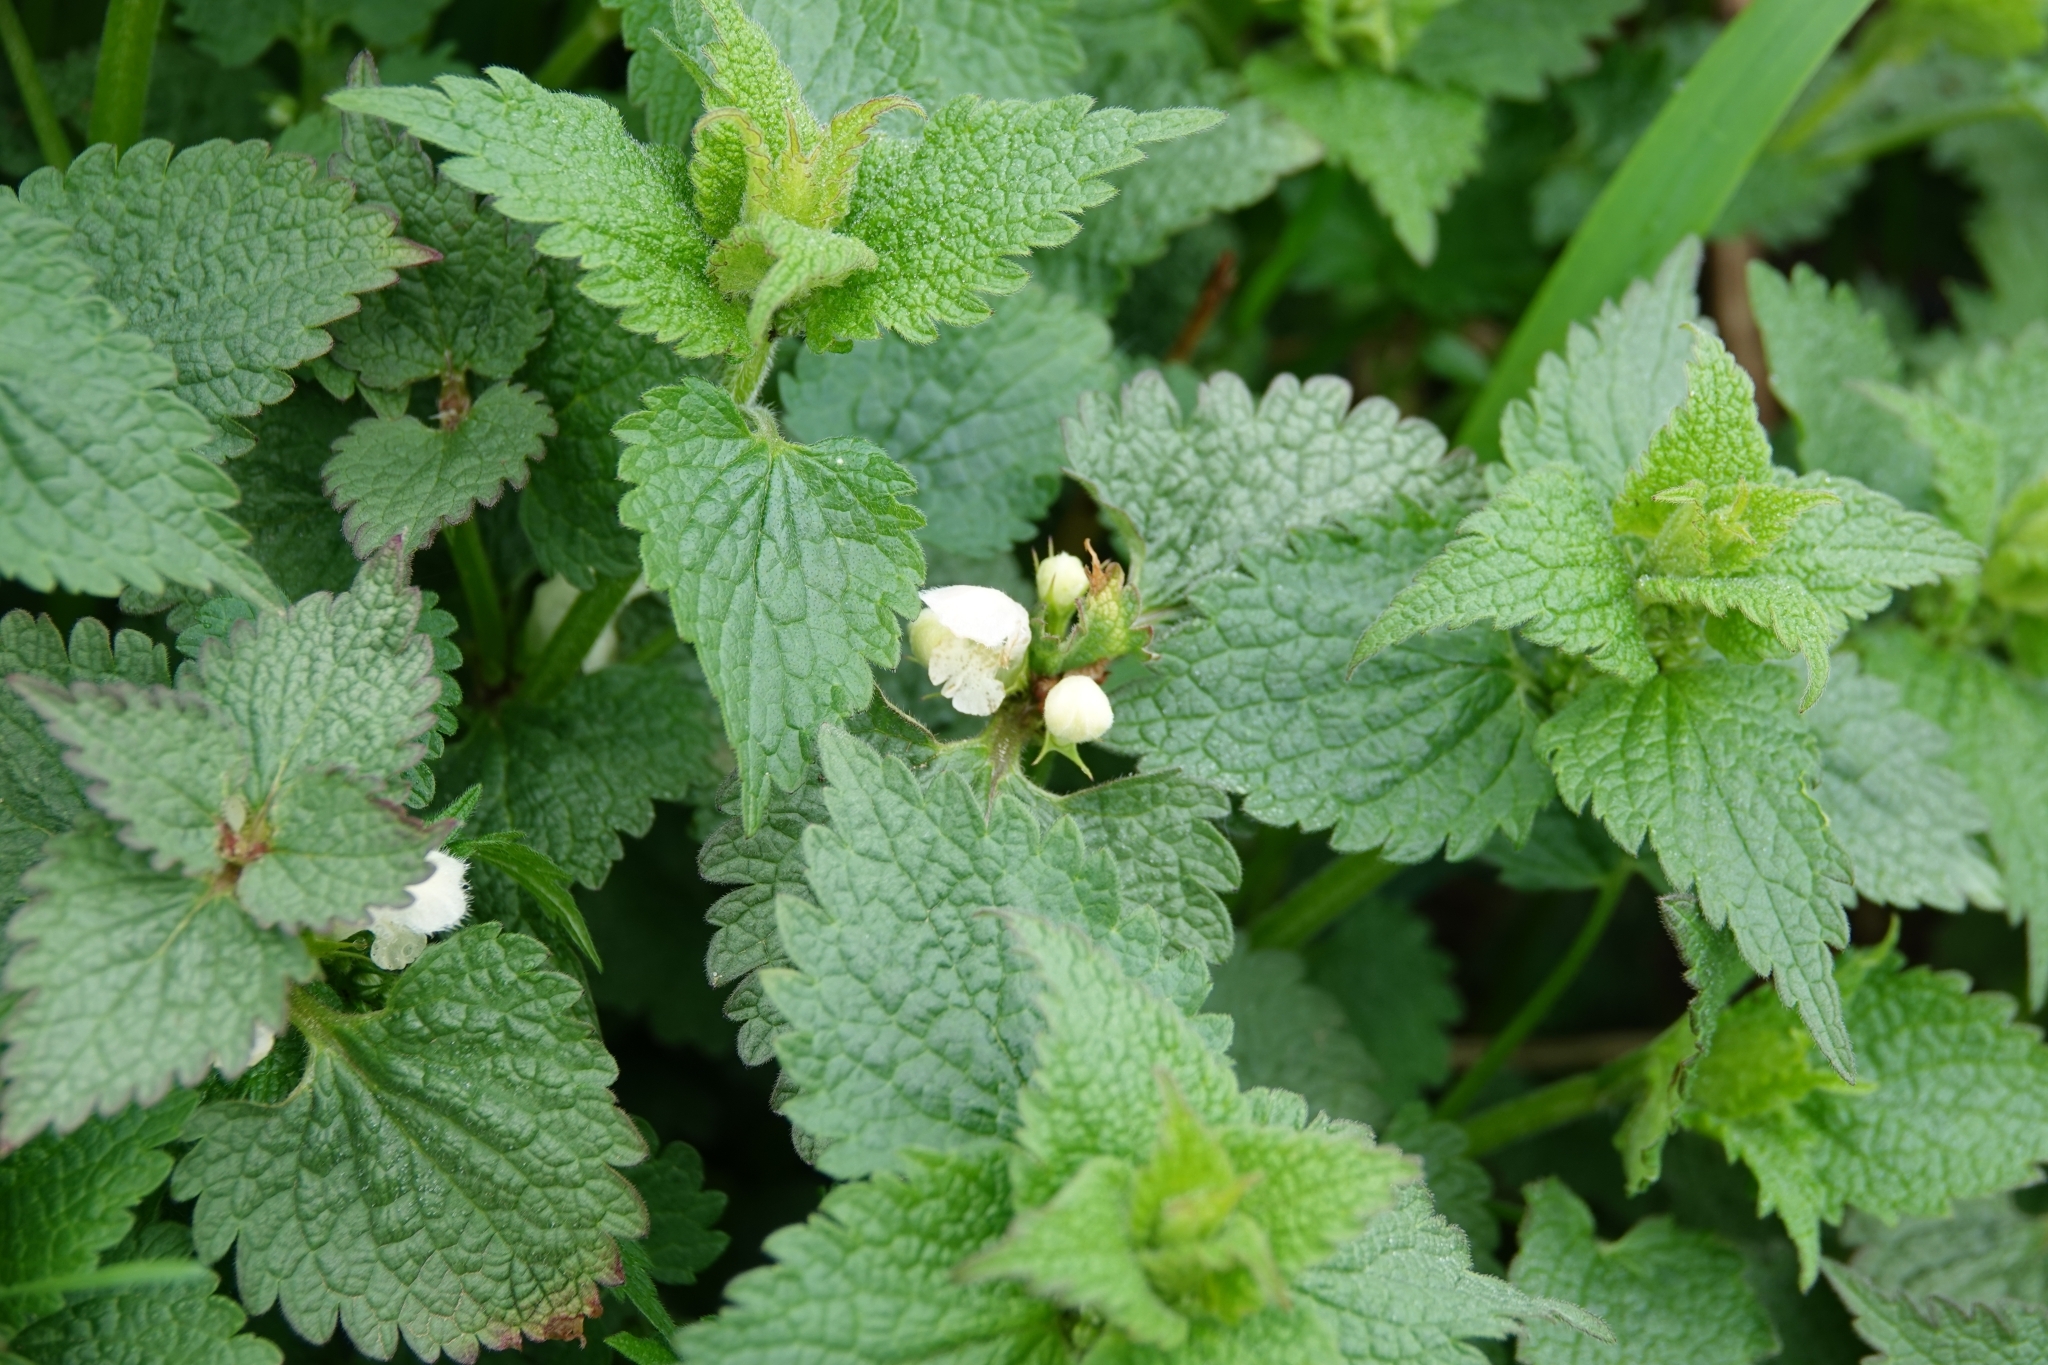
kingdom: Plantae
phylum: Tracheophyta
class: Magnoliopsida
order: Lamiales
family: Lamiaceae
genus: Lamium
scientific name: Lamium album
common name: White dead-nettle
